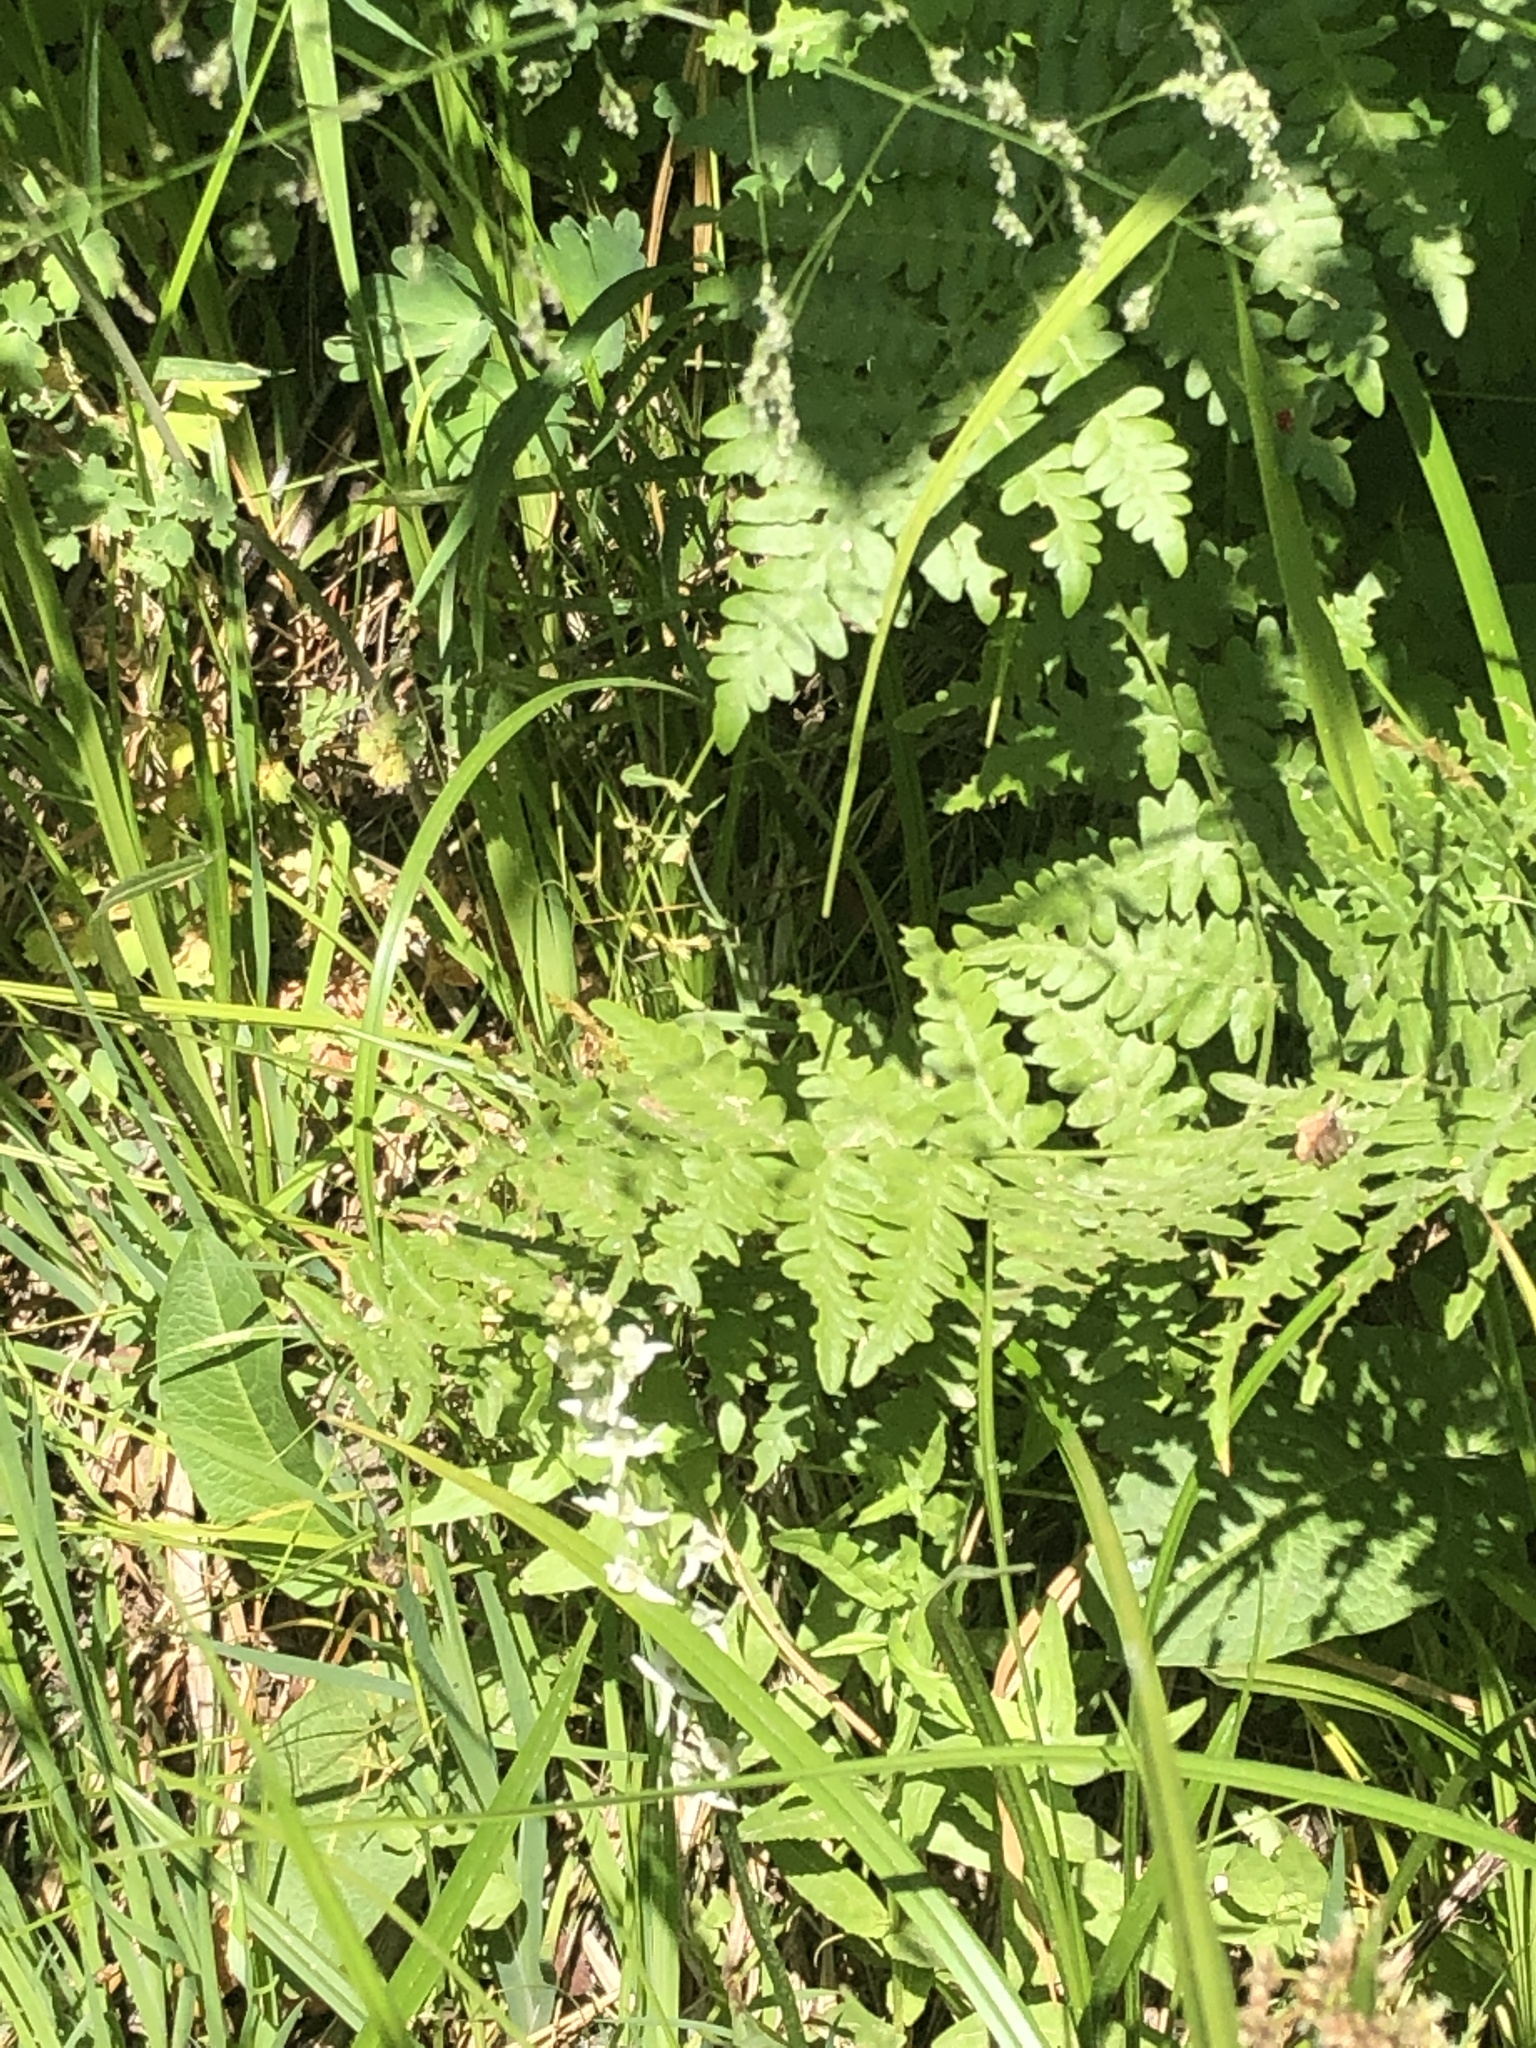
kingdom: Plantae
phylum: Tracheophyta
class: Liliopsida
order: Asparagales
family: Orchidaceae
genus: Platanthera
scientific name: Platanthera dilatata
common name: Bog candles
